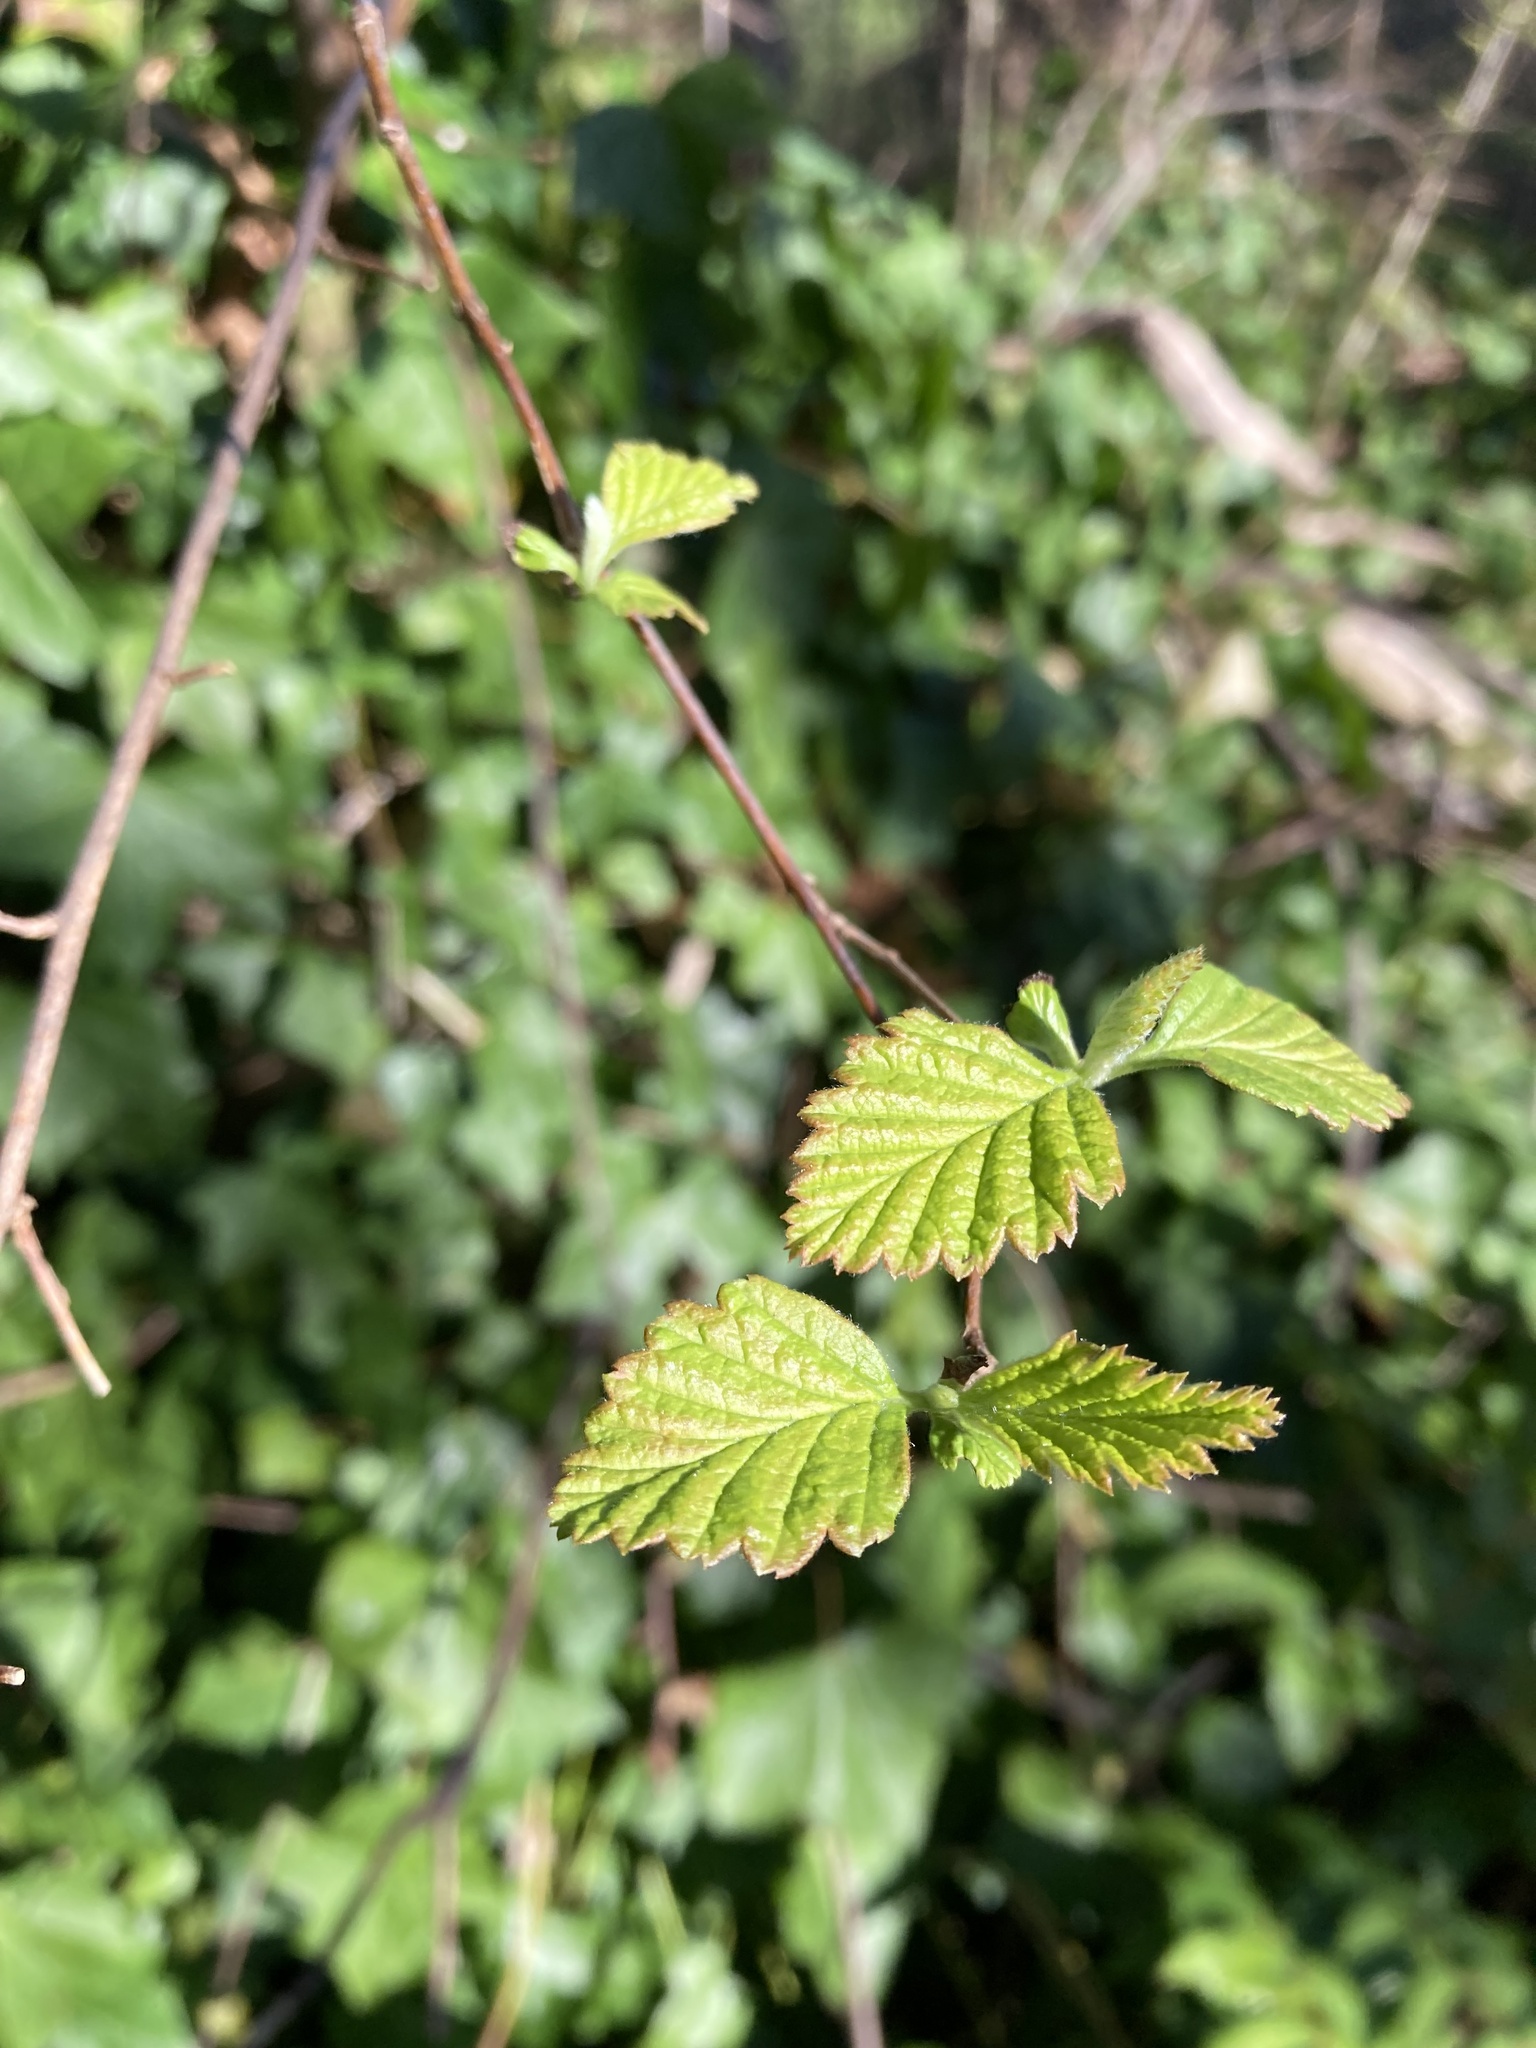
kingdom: Plantae
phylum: Tracheophyta
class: Magnoliopsida
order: Rosales
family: Rosaceae
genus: Holodiscus
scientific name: Holodiscus discolor
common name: Oceanspray
